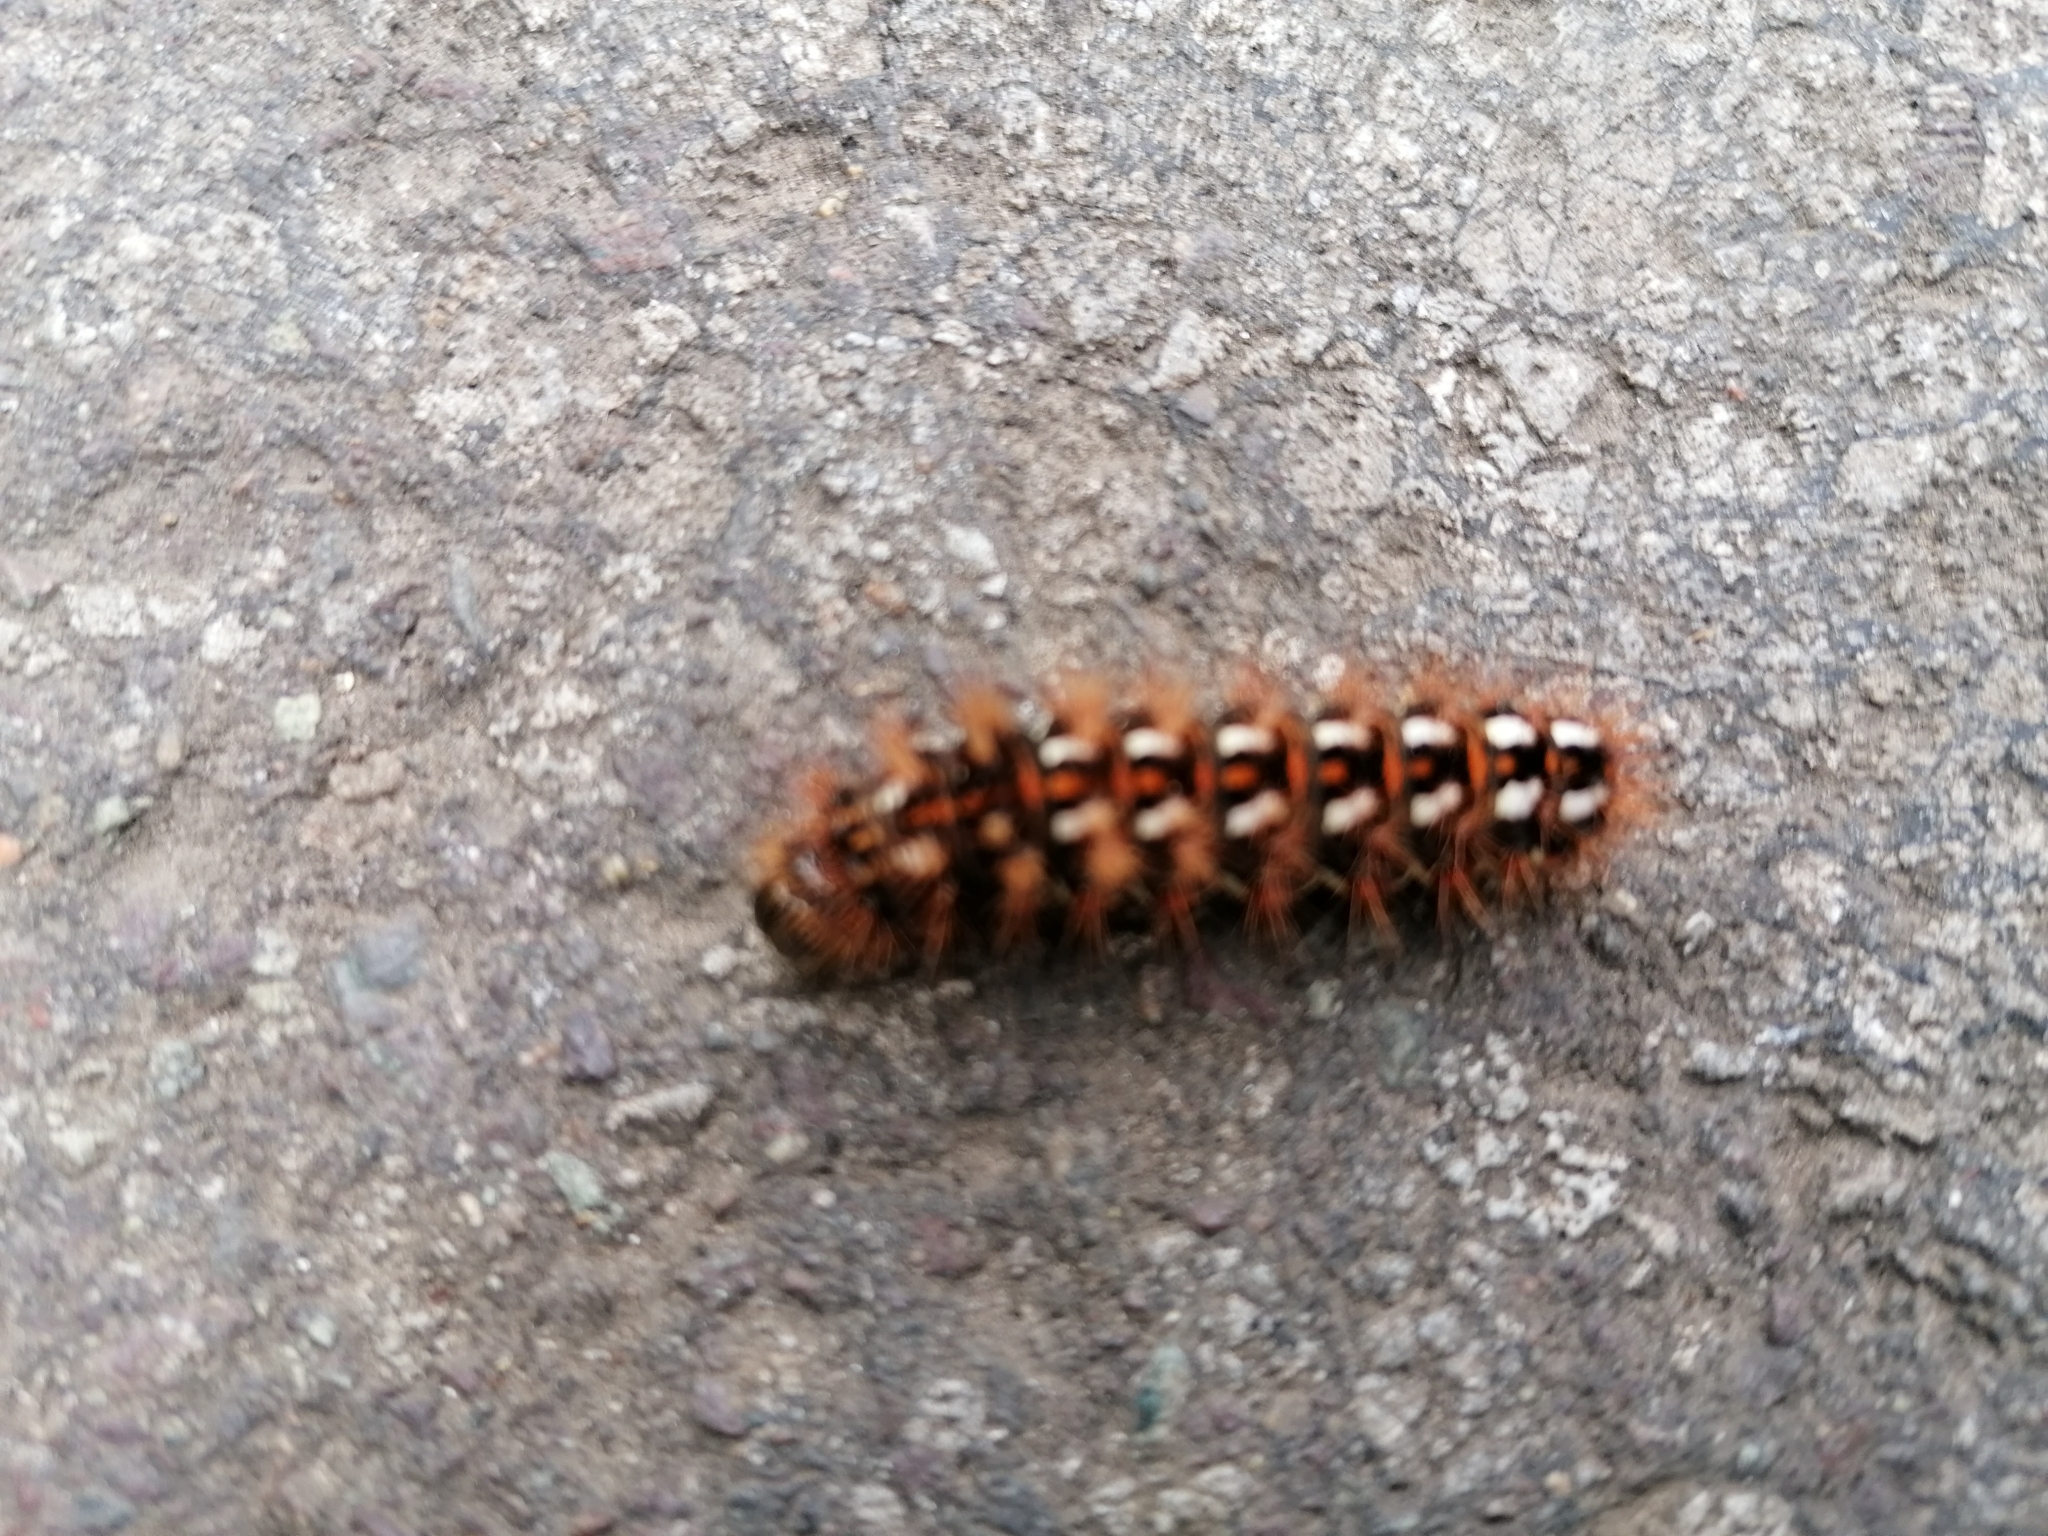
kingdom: Animalia
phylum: Arthropoda
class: Insecta
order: Lepidoptera
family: Noctuidae
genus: Acronicta
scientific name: Acronicta rumicis
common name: Knot grass
